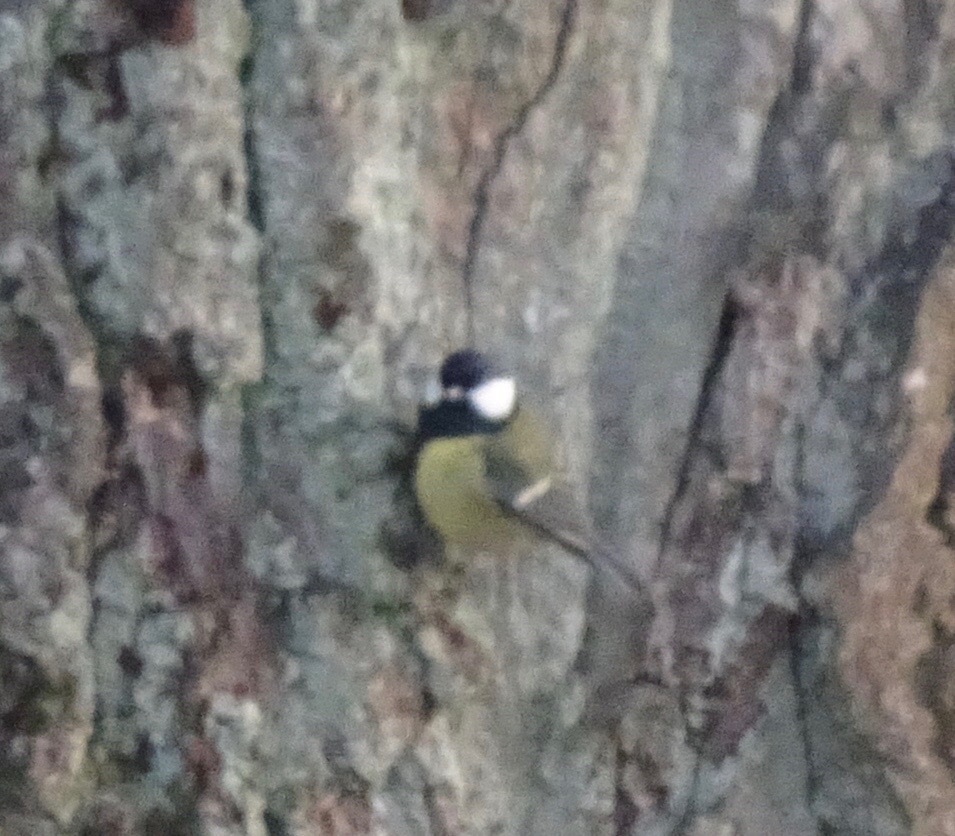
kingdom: Animalia
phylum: Chordata
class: Aves
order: Passeriformes
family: Paridae
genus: Parus
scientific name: Parus major
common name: Great tit
